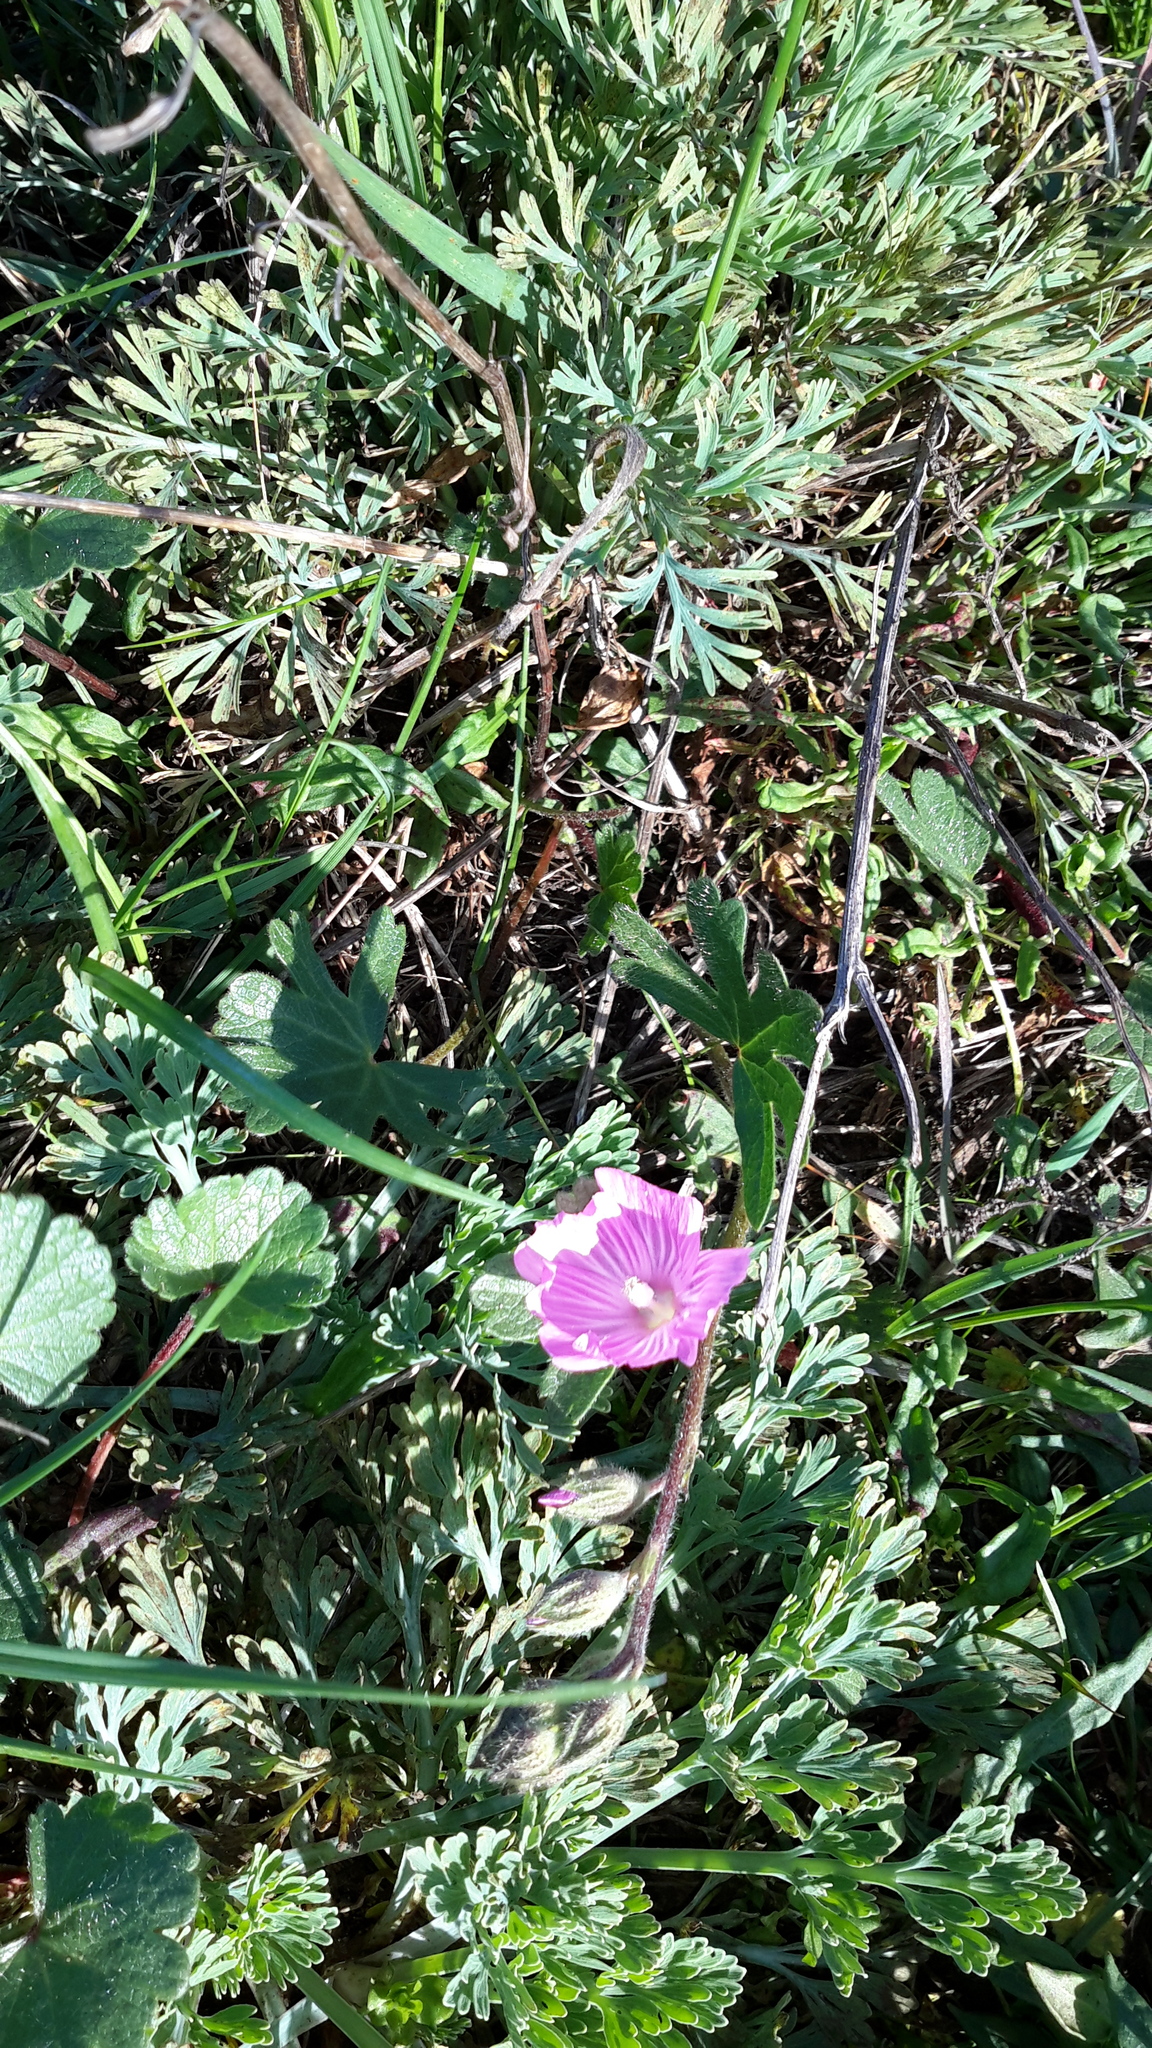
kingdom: Plantae
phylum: Tracheophyta
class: Magnoliopsida
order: Malvales
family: Malvaceae
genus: Sidalcea
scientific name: Sidalcea malviflora
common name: Greek mallow
